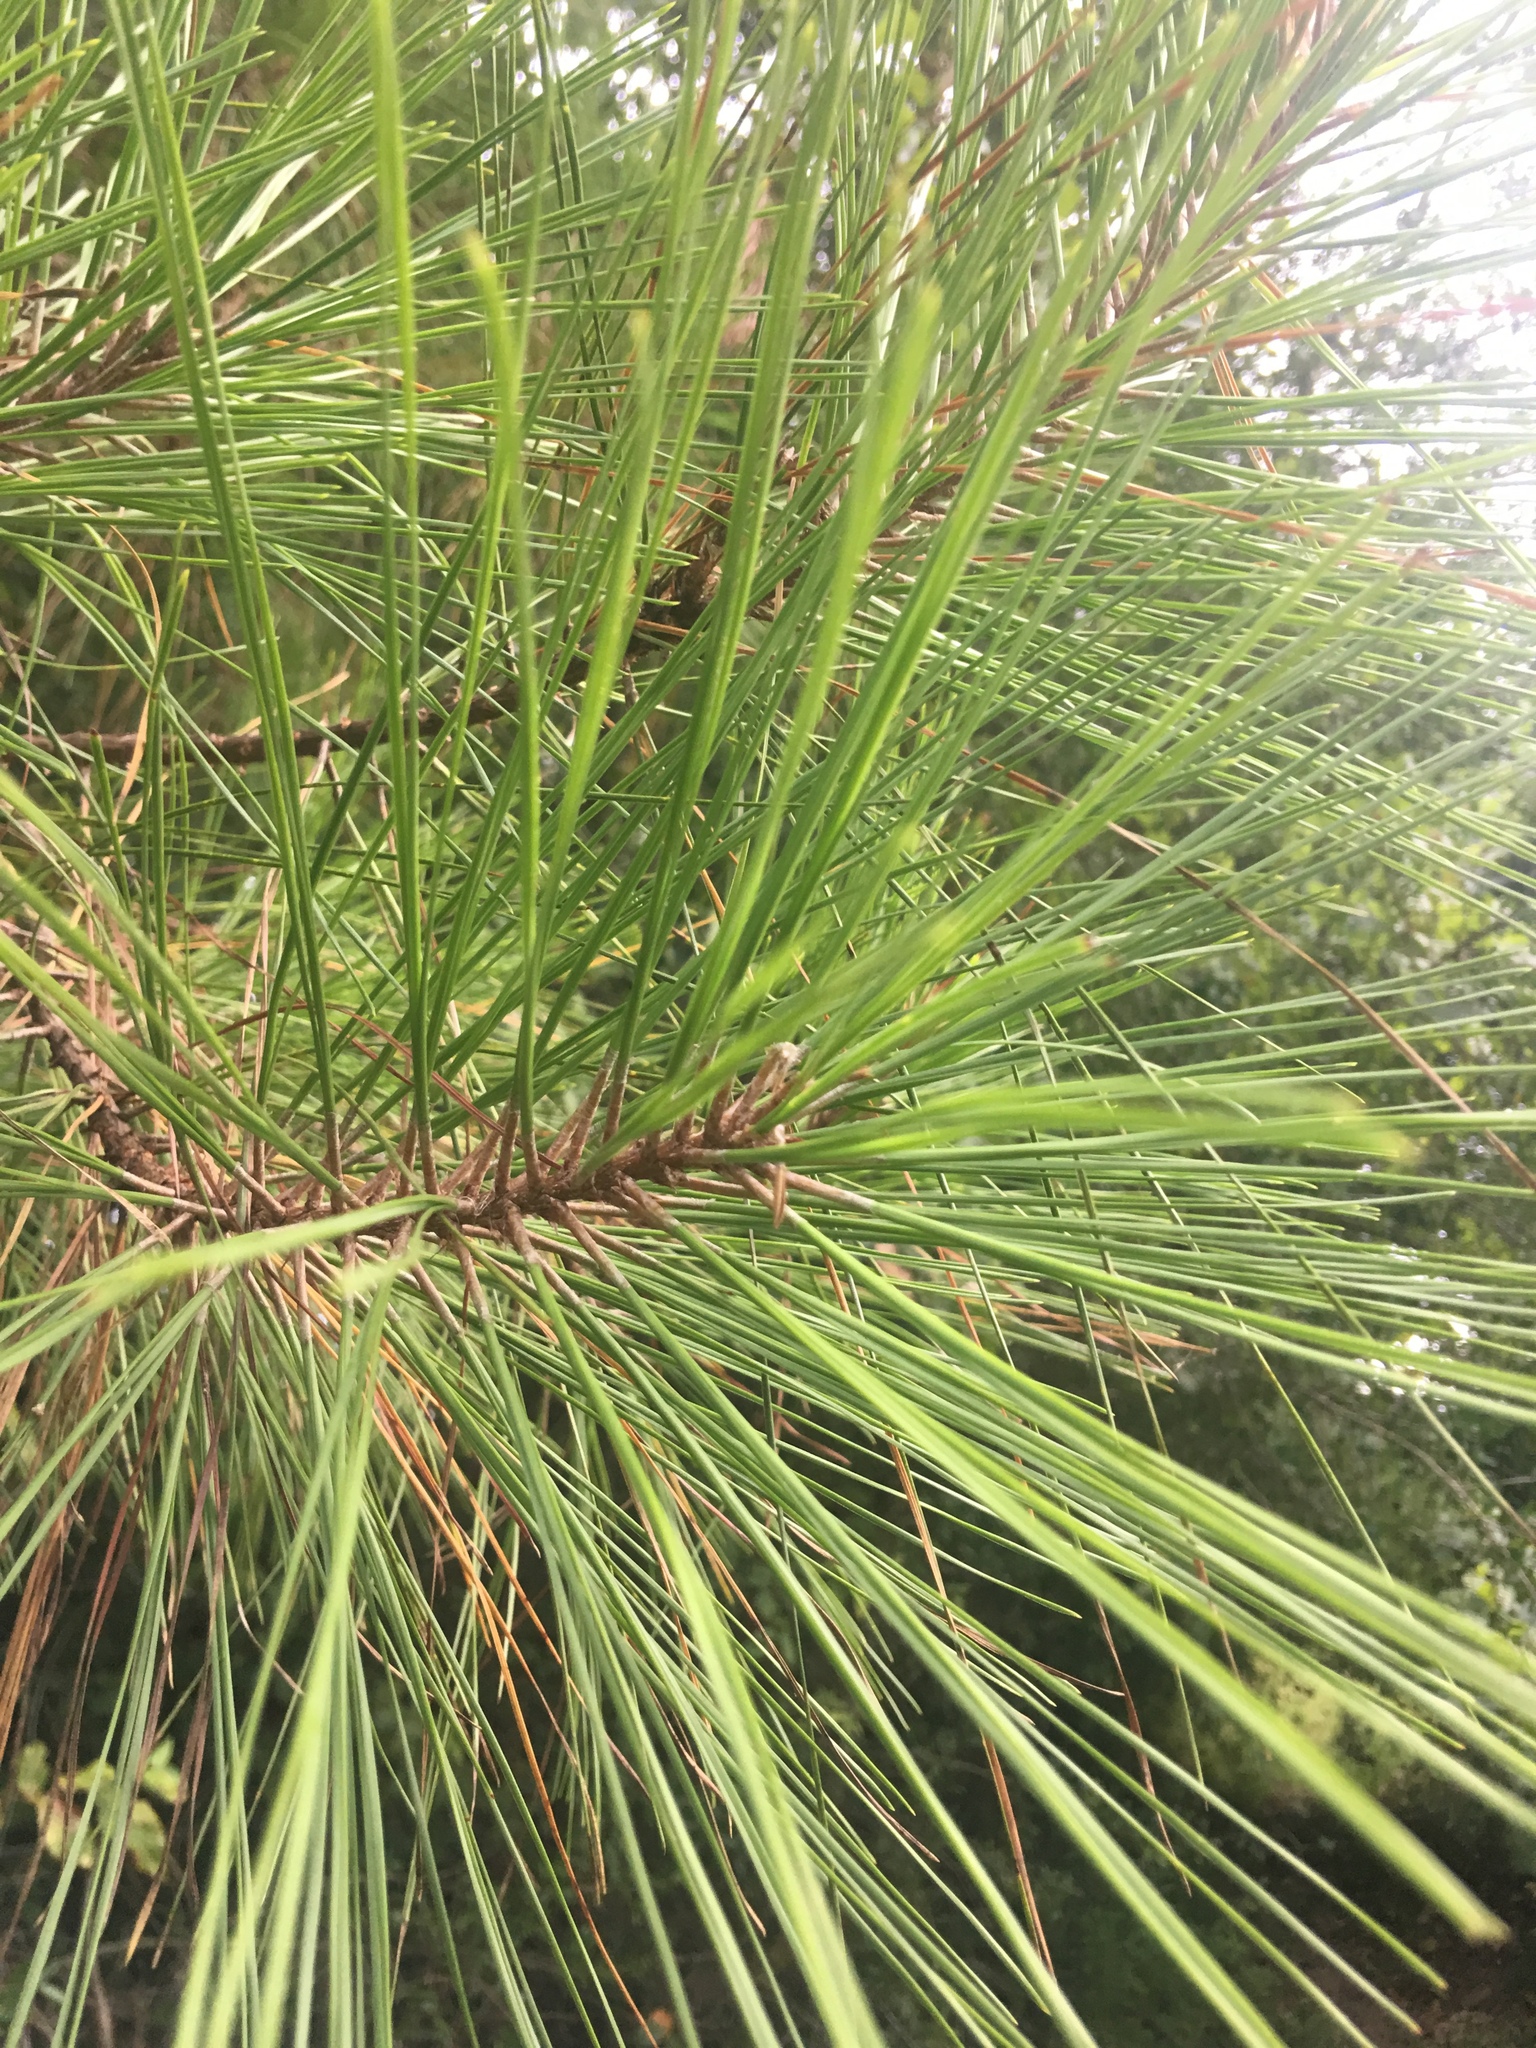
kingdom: Plantae
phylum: Tracheophyta
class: Pinopsida
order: Pinales
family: Pinaceae
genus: Pinus
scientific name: Pinus taeda
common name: Loblolly pine
